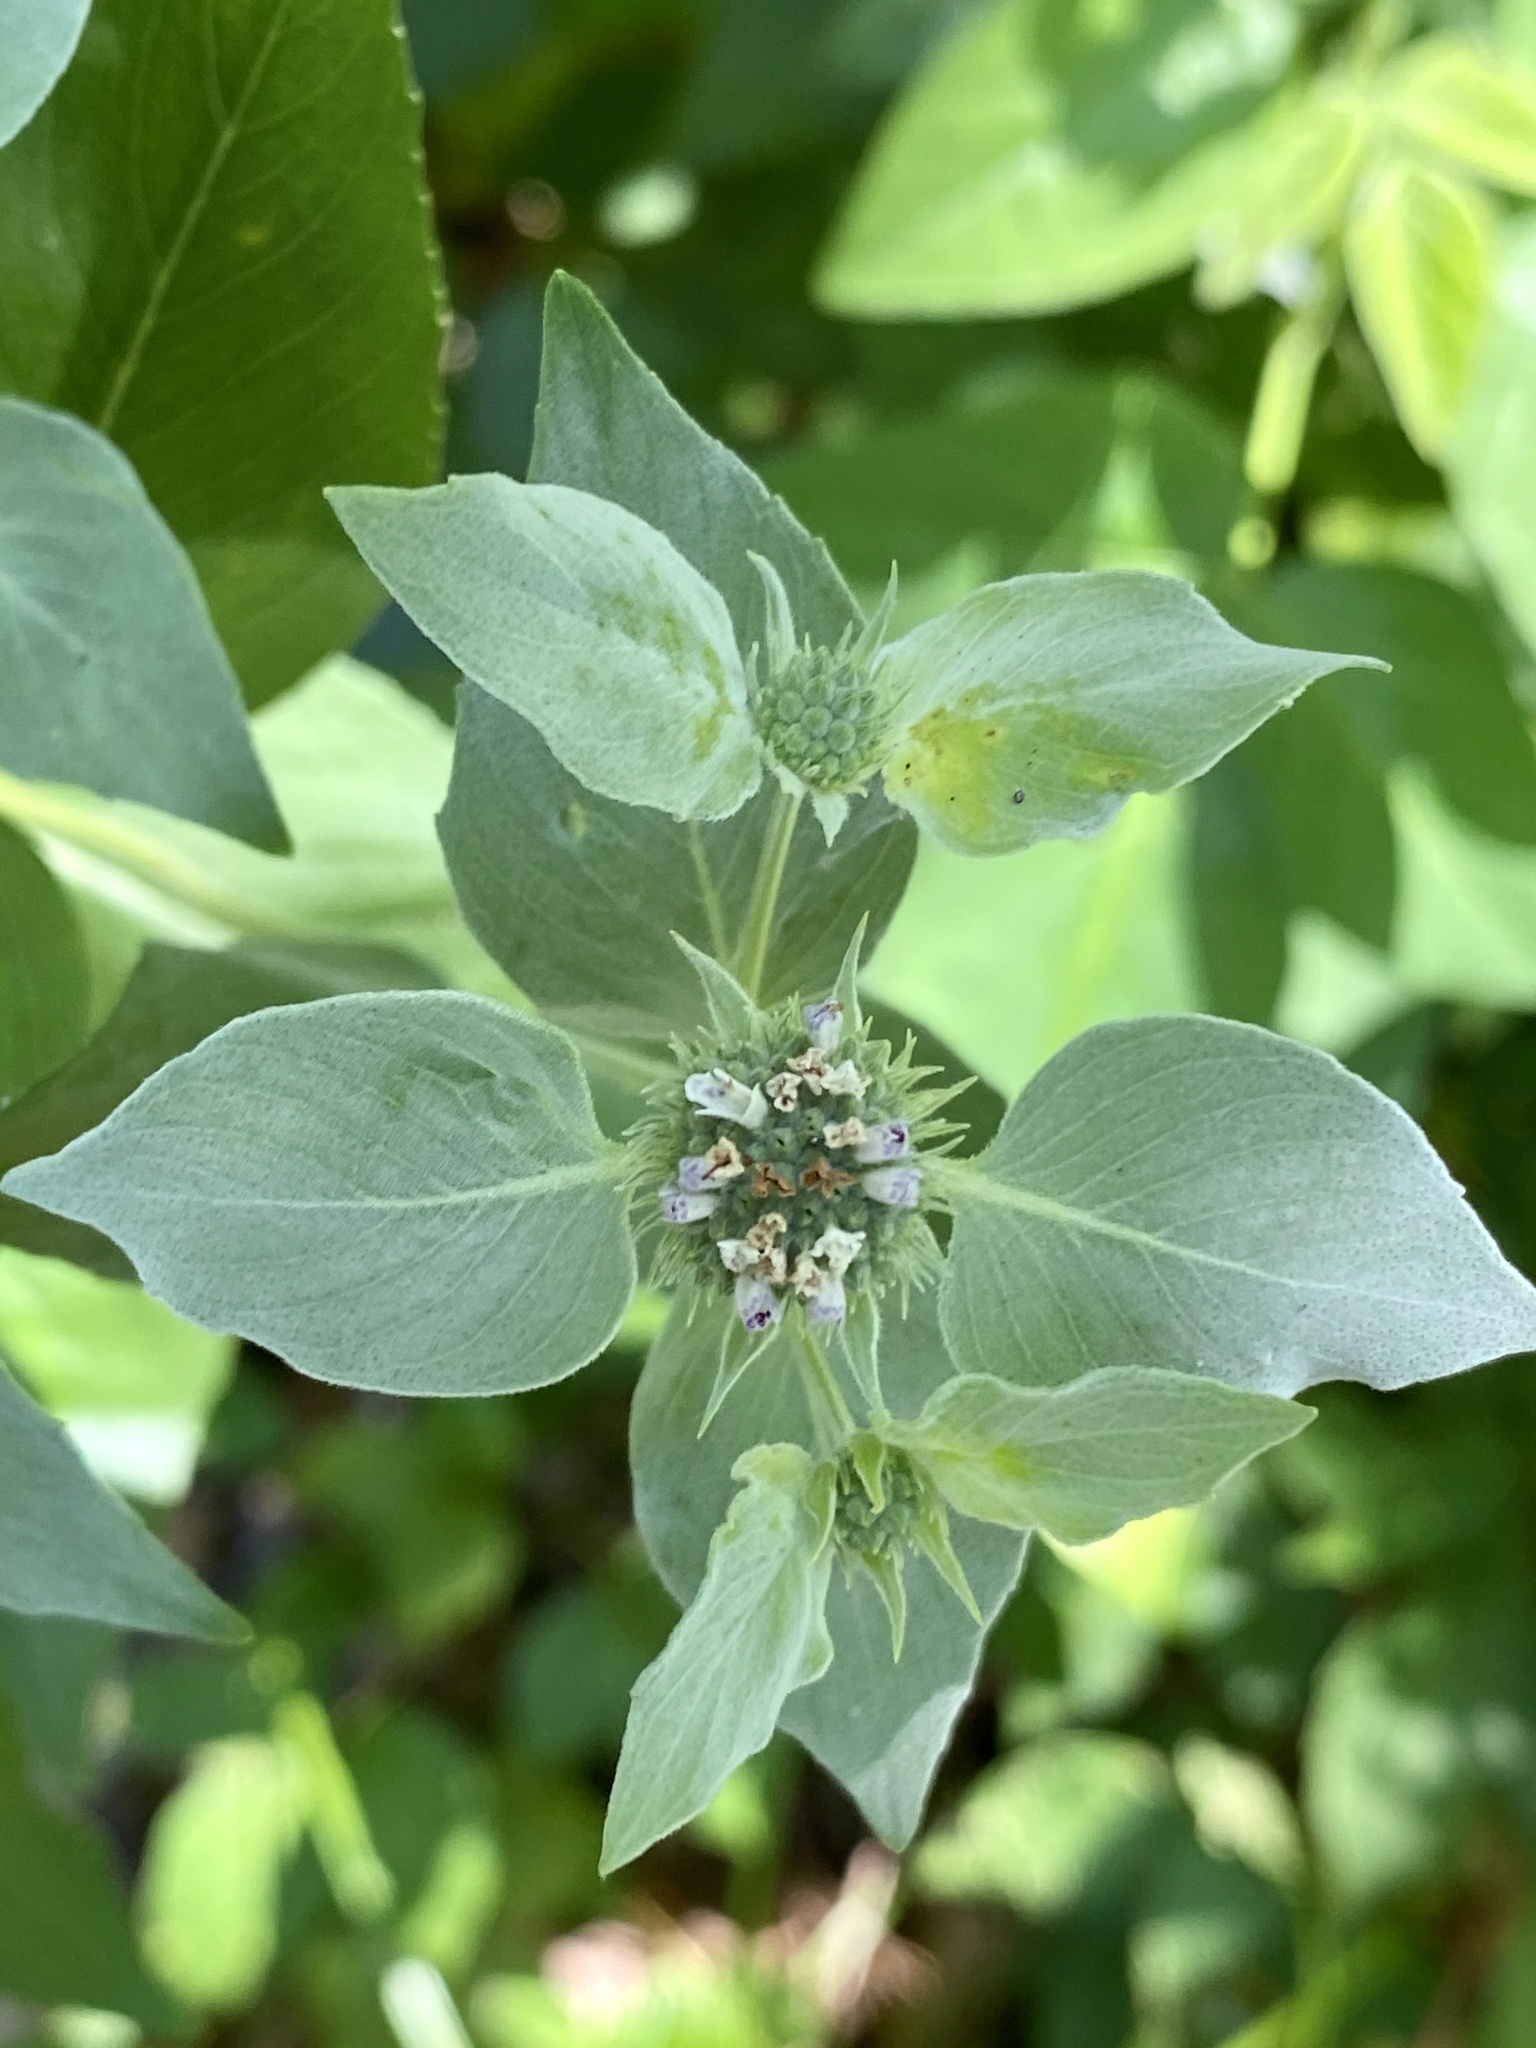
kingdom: Plantae
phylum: Tracheophyta
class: Magnoliopsida
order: Lamiales
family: Lamiaceae
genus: Pycnanthemum
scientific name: Pycnanthemum muticum
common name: Blunt mountain-mint
